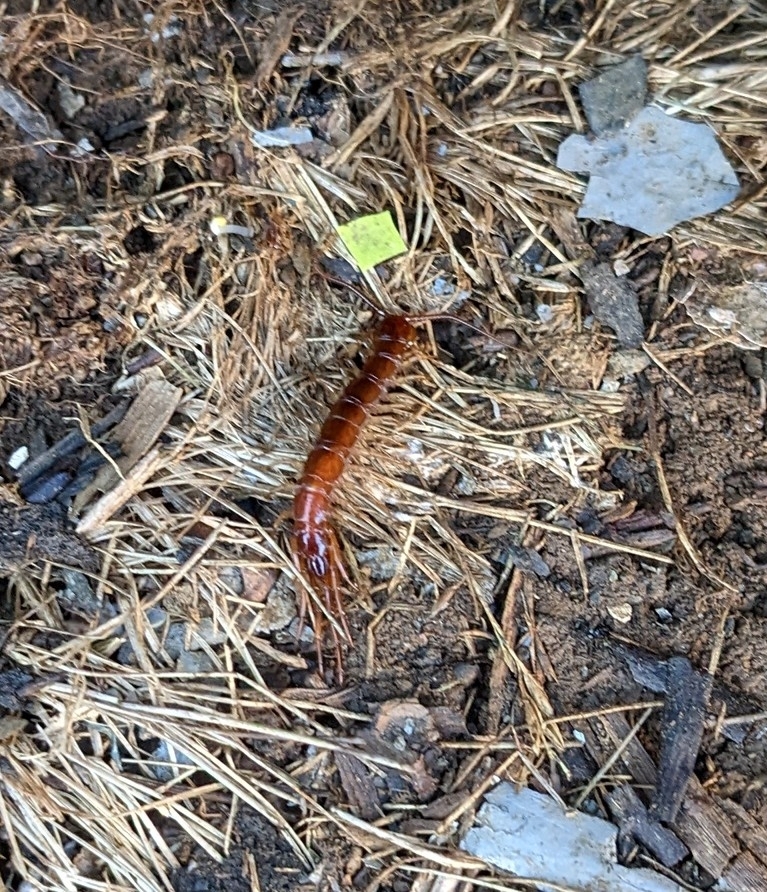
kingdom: Animalia
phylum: Arthropoda
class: Chilopoda
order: Lithobiomorpha
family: Lithobiidae
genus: Lithobius
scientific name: Lithobius forficatus
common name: Centipede
